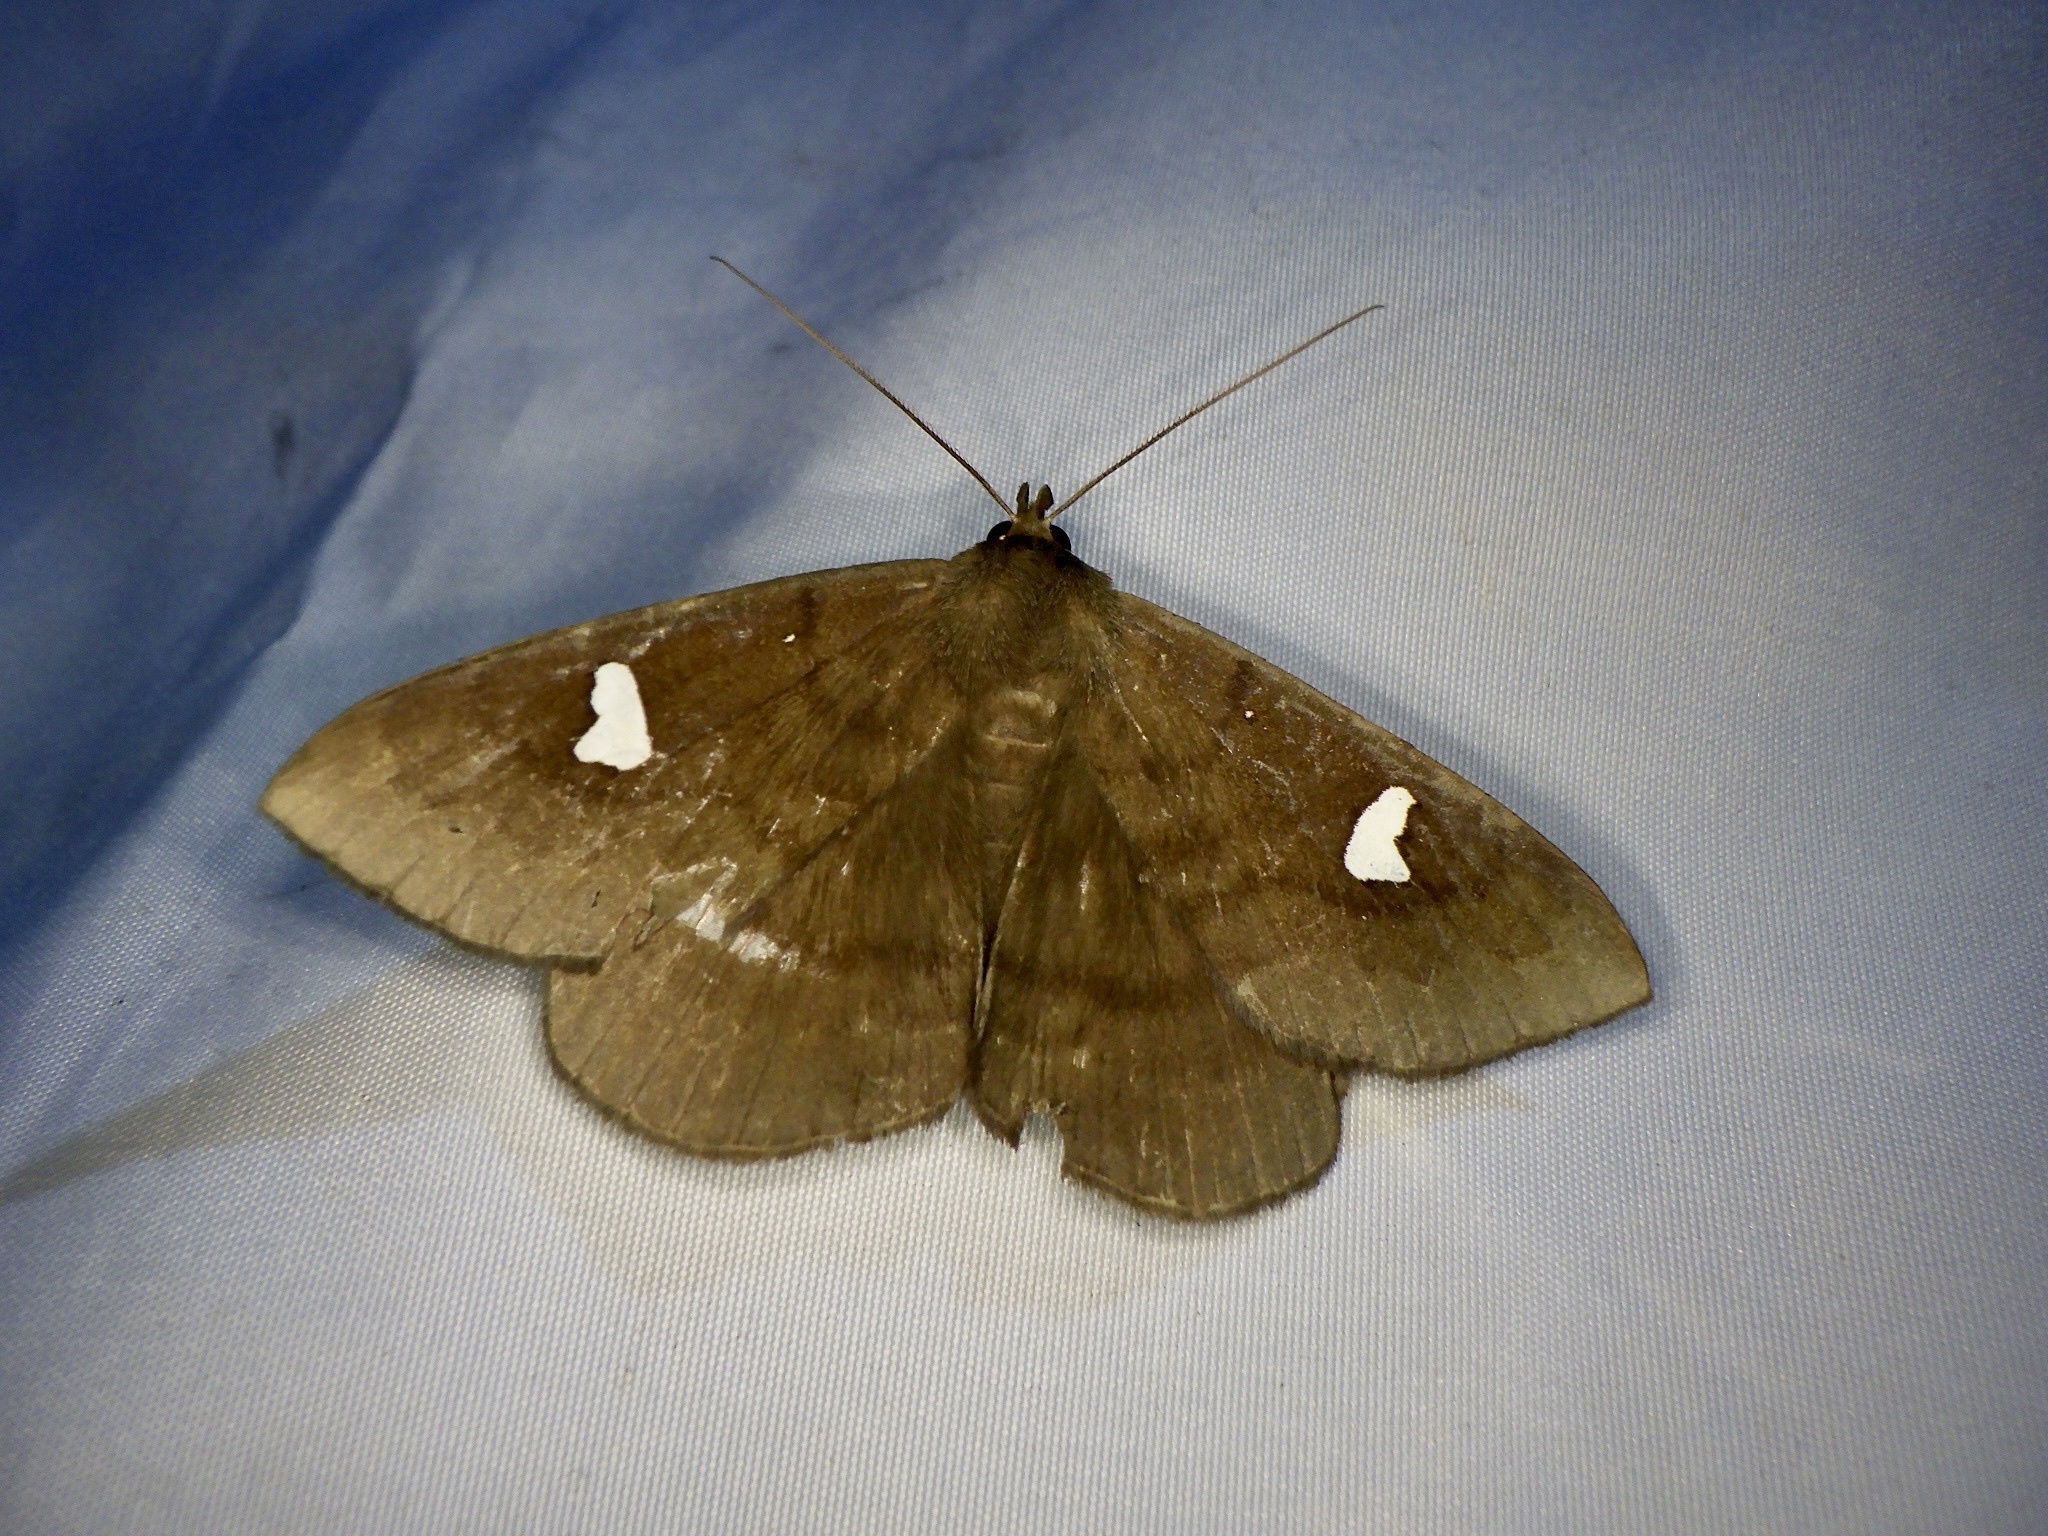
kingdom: Animalia
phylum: Arthropoda
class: Insecta
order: Lepidoptera
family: Erebidae
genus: Edessena
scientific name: Edessena gentiusalis
